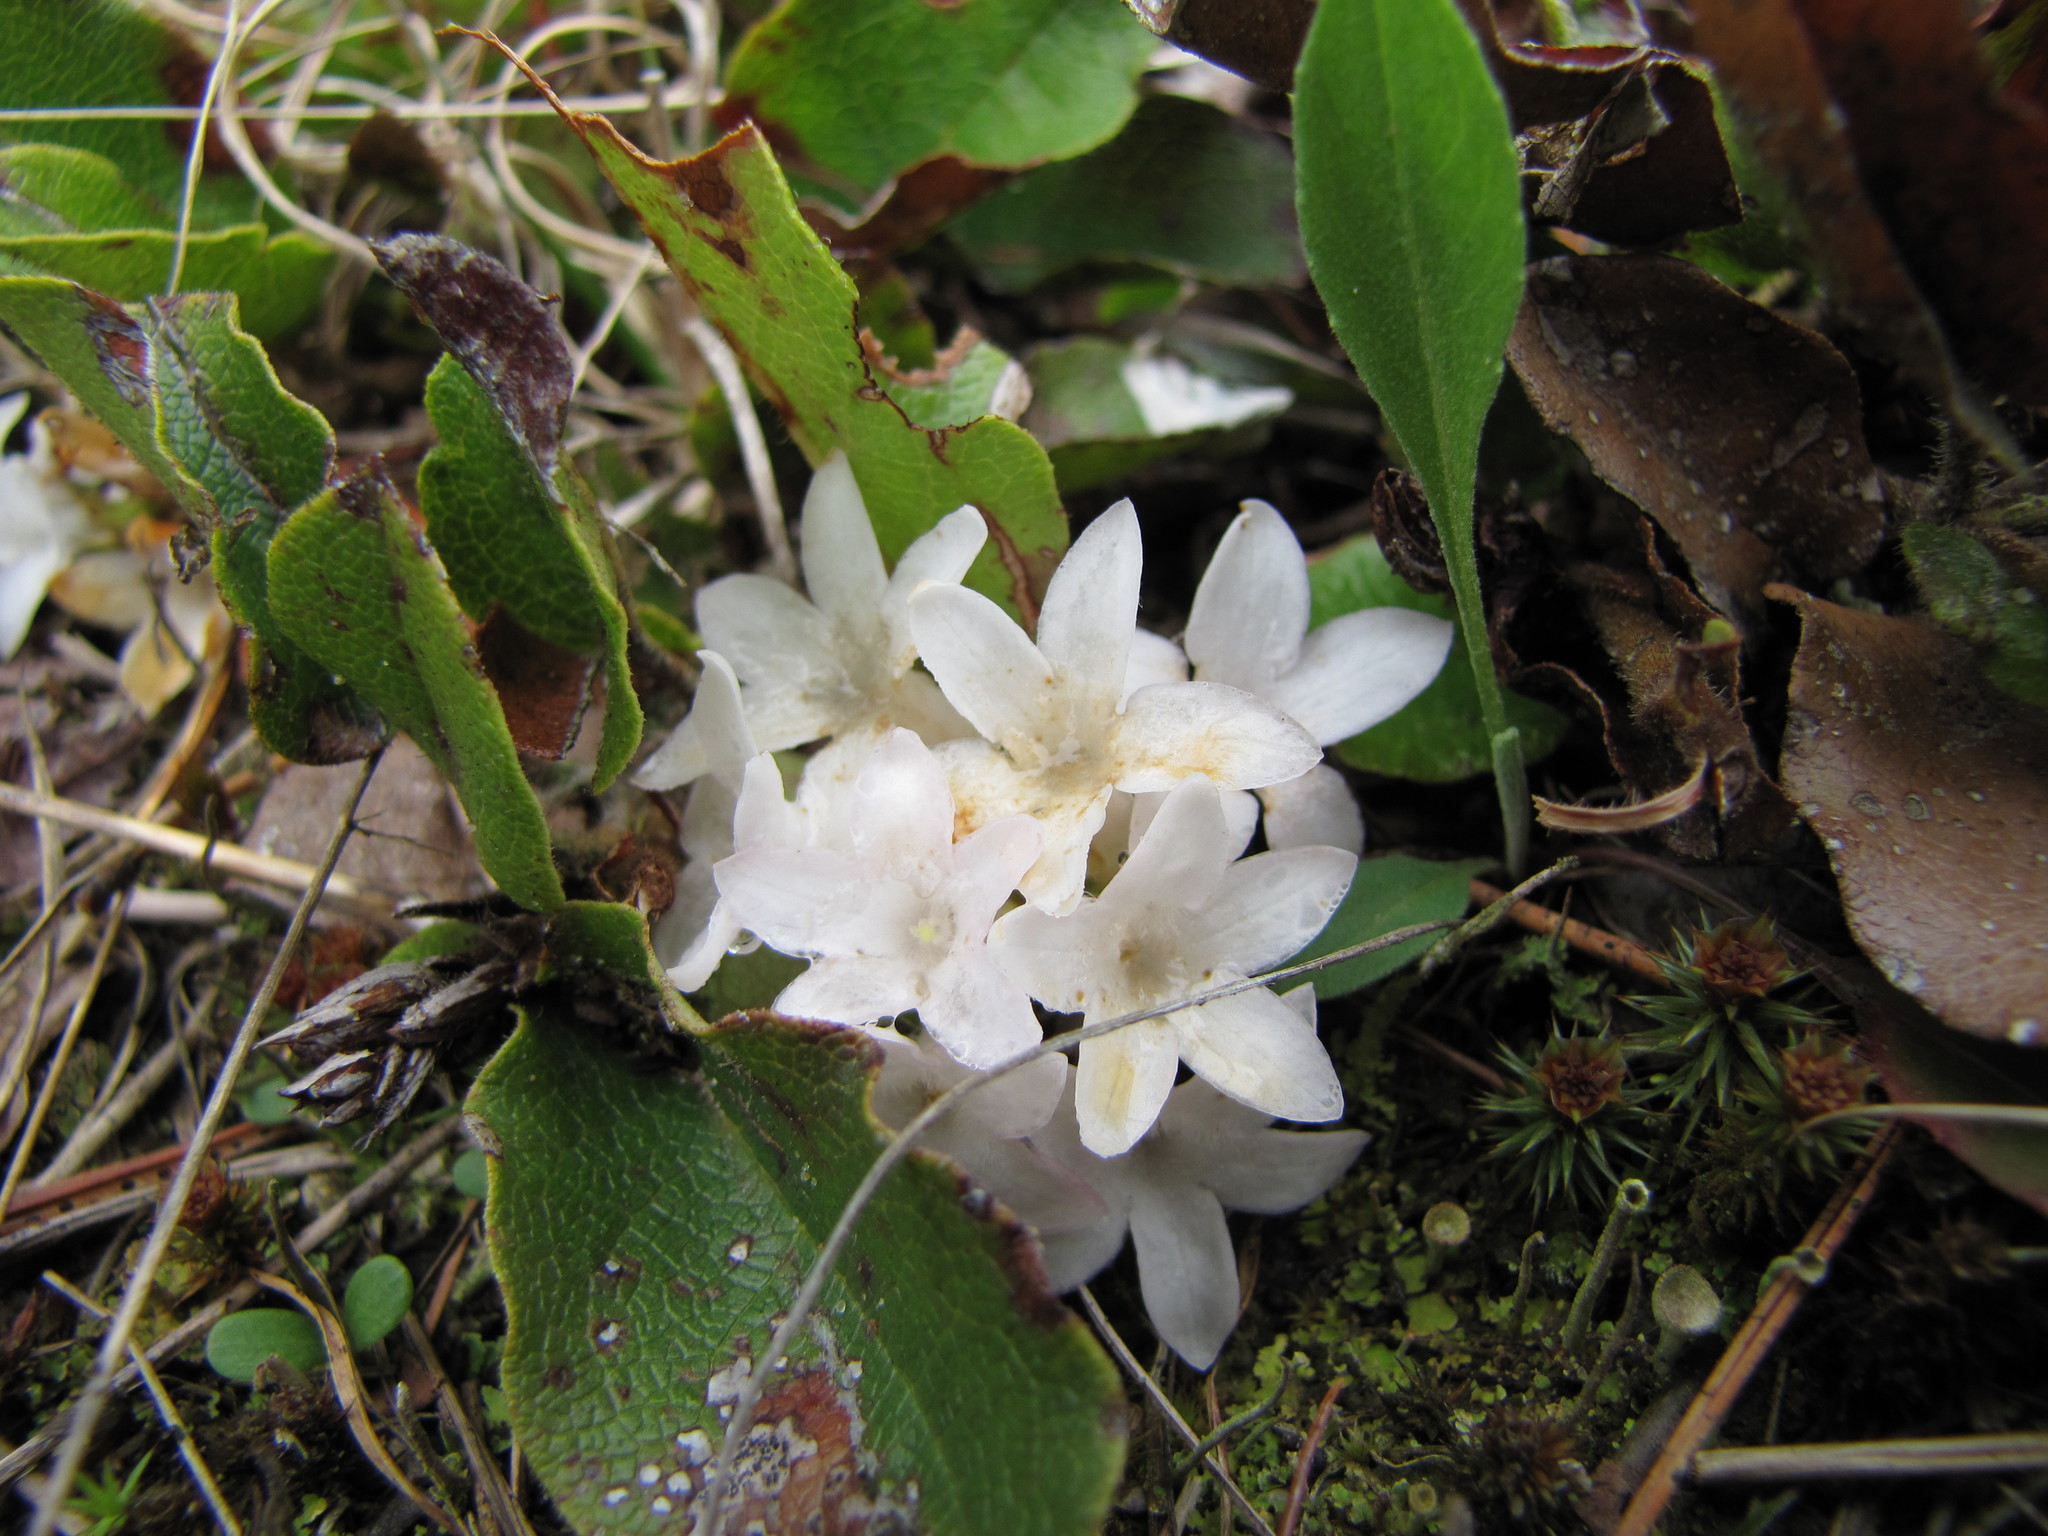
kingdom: Plantae
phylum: Tracheophyta
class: Magnoliopsida
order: Ericales
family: Ericaceae
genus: Epigaea
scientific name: Epigaea repens
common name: Gravelroot
